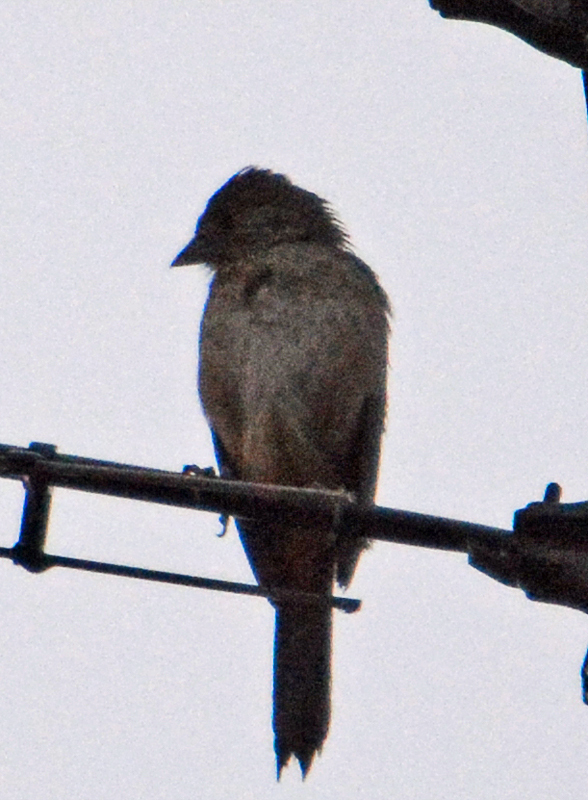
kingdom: Animalia
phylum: Chordata
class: Aves
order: Passeriformes
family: Passerellidae
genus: Melozone
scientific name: Melozone fusca
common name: Canyon towhee
